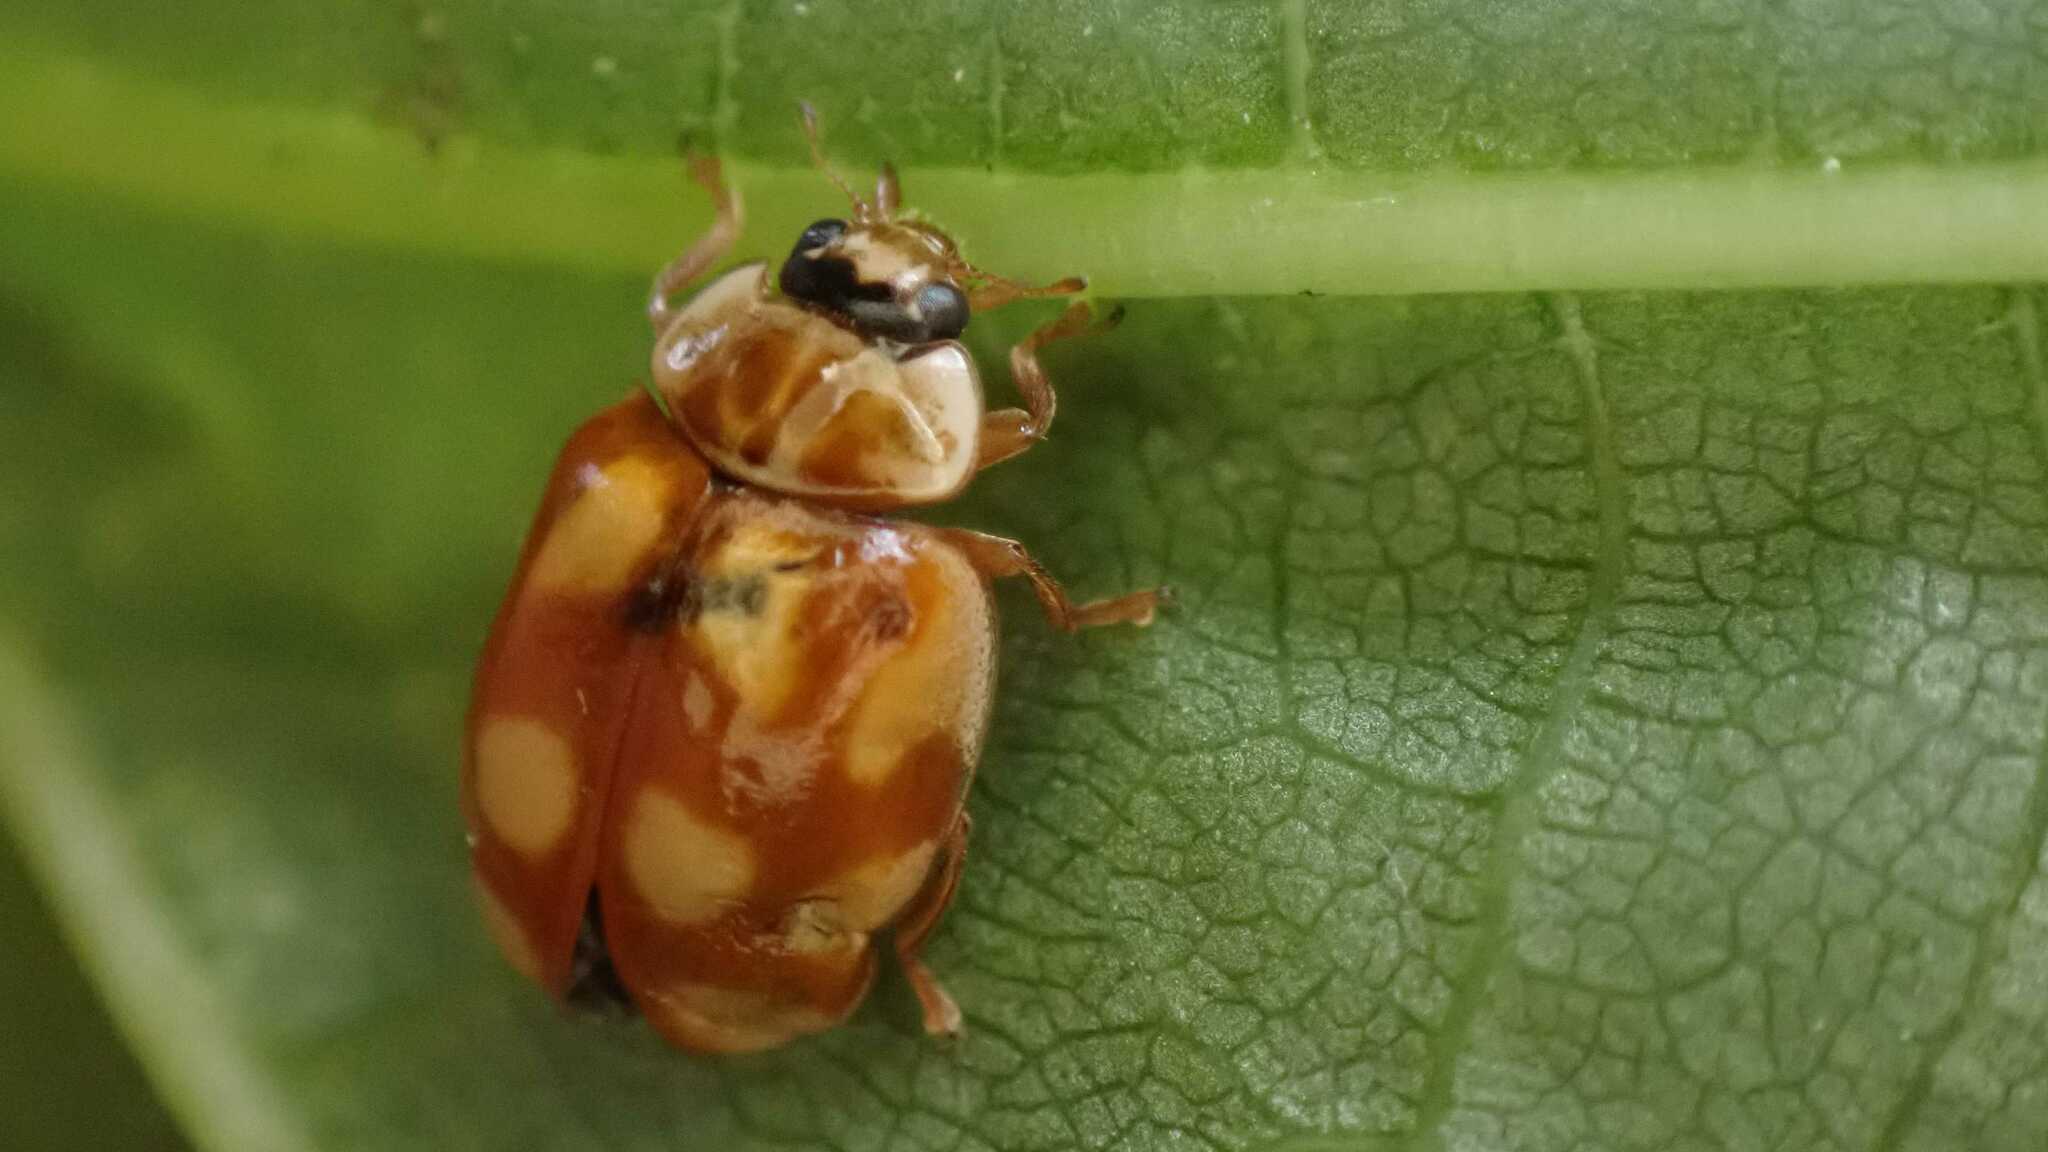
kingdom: Animalia
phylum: Arthropoda
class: Insecta
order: Coleoptera
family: Coccinellidae
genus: Adalia
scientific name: Adalia decempunctata
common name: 10-spot ladybird
